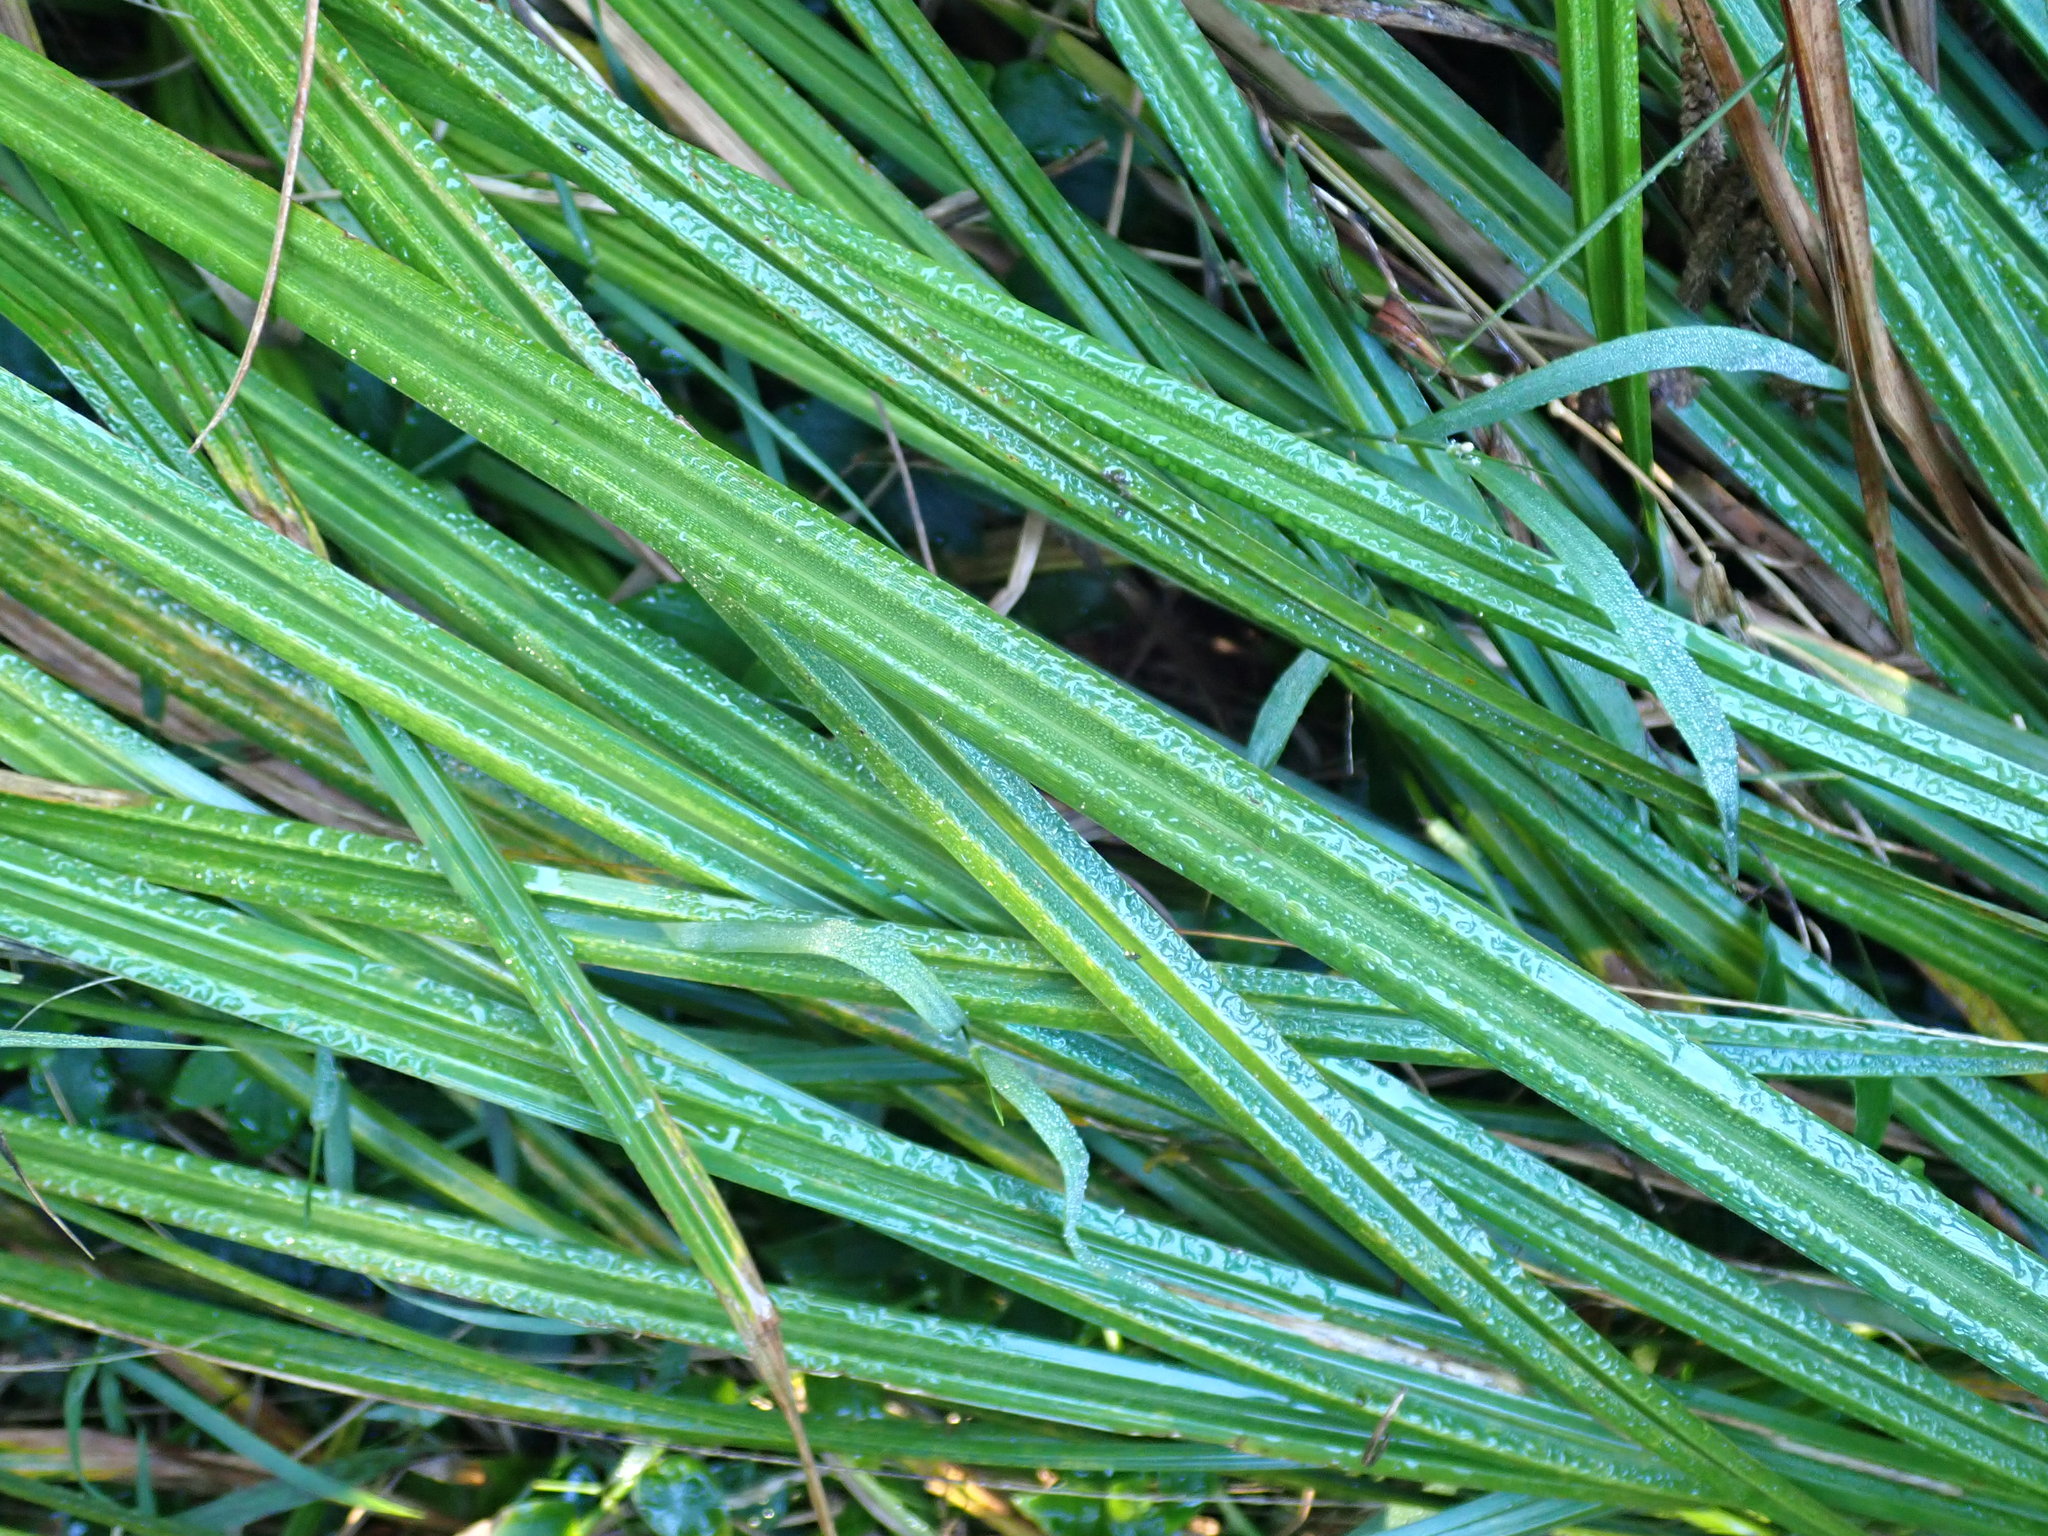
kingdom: Plantae
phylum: Tracheophyta
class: Liliopsida
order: Poales
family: Cyperaceae
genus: Carex
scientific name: Carex geminata
